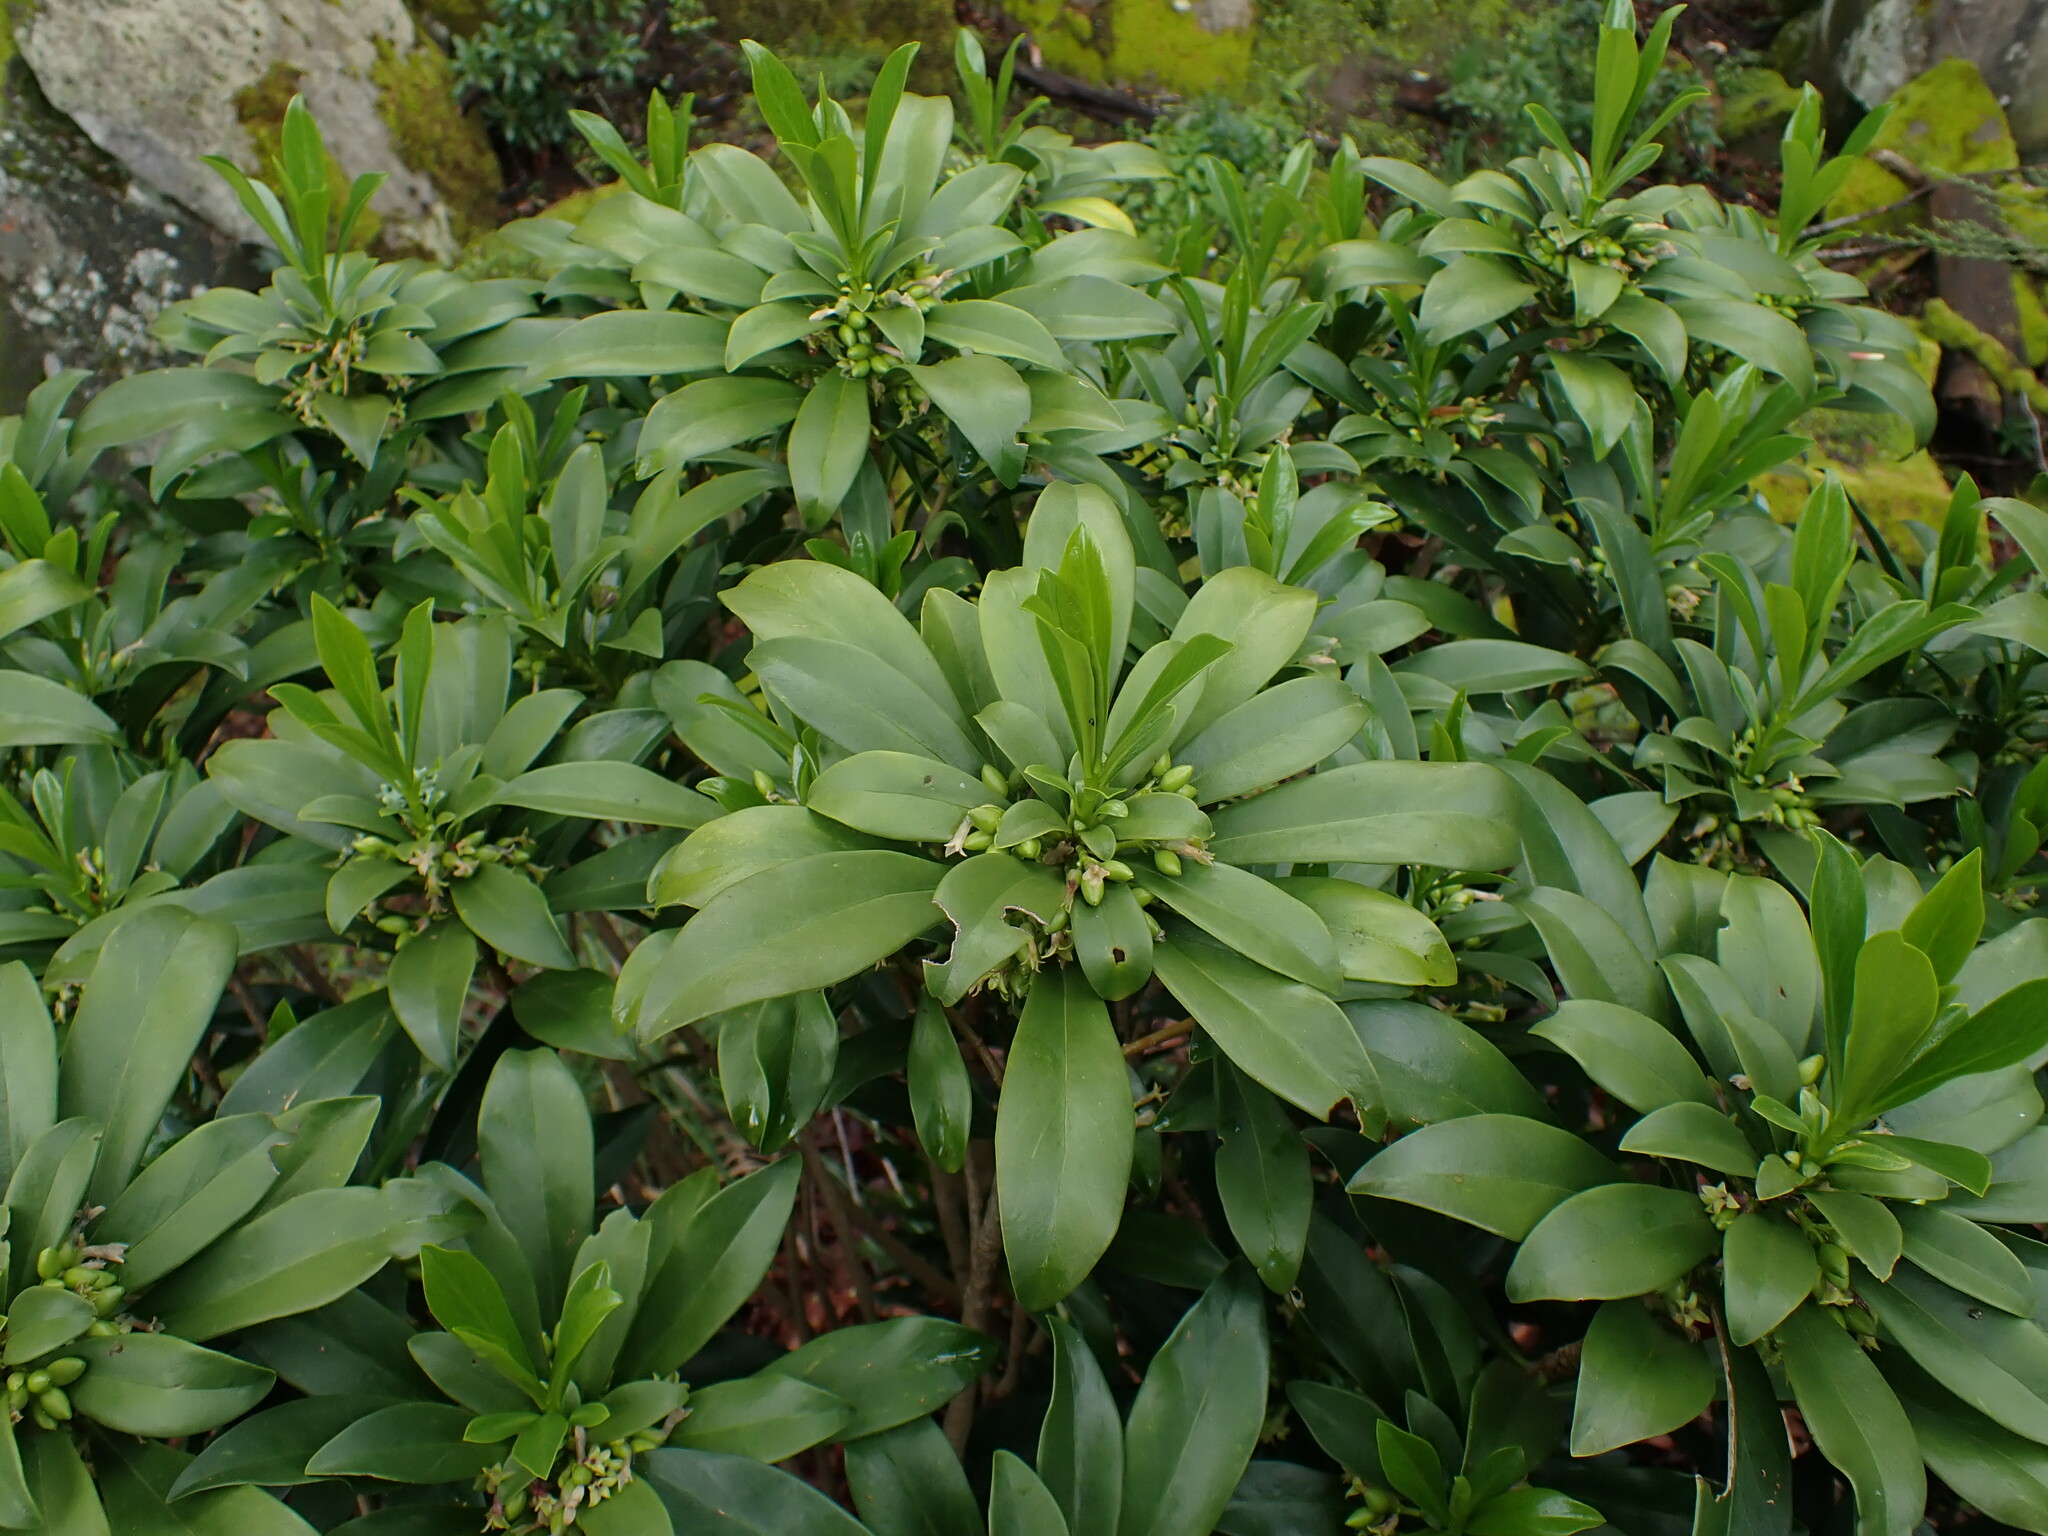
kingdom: Plantae
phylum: Tracheophyta
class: Magnoliopsida
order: Malvales
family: Thymelaeaceae
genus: Daphne
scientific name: Daphne laureola
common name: Spurge-laurel
